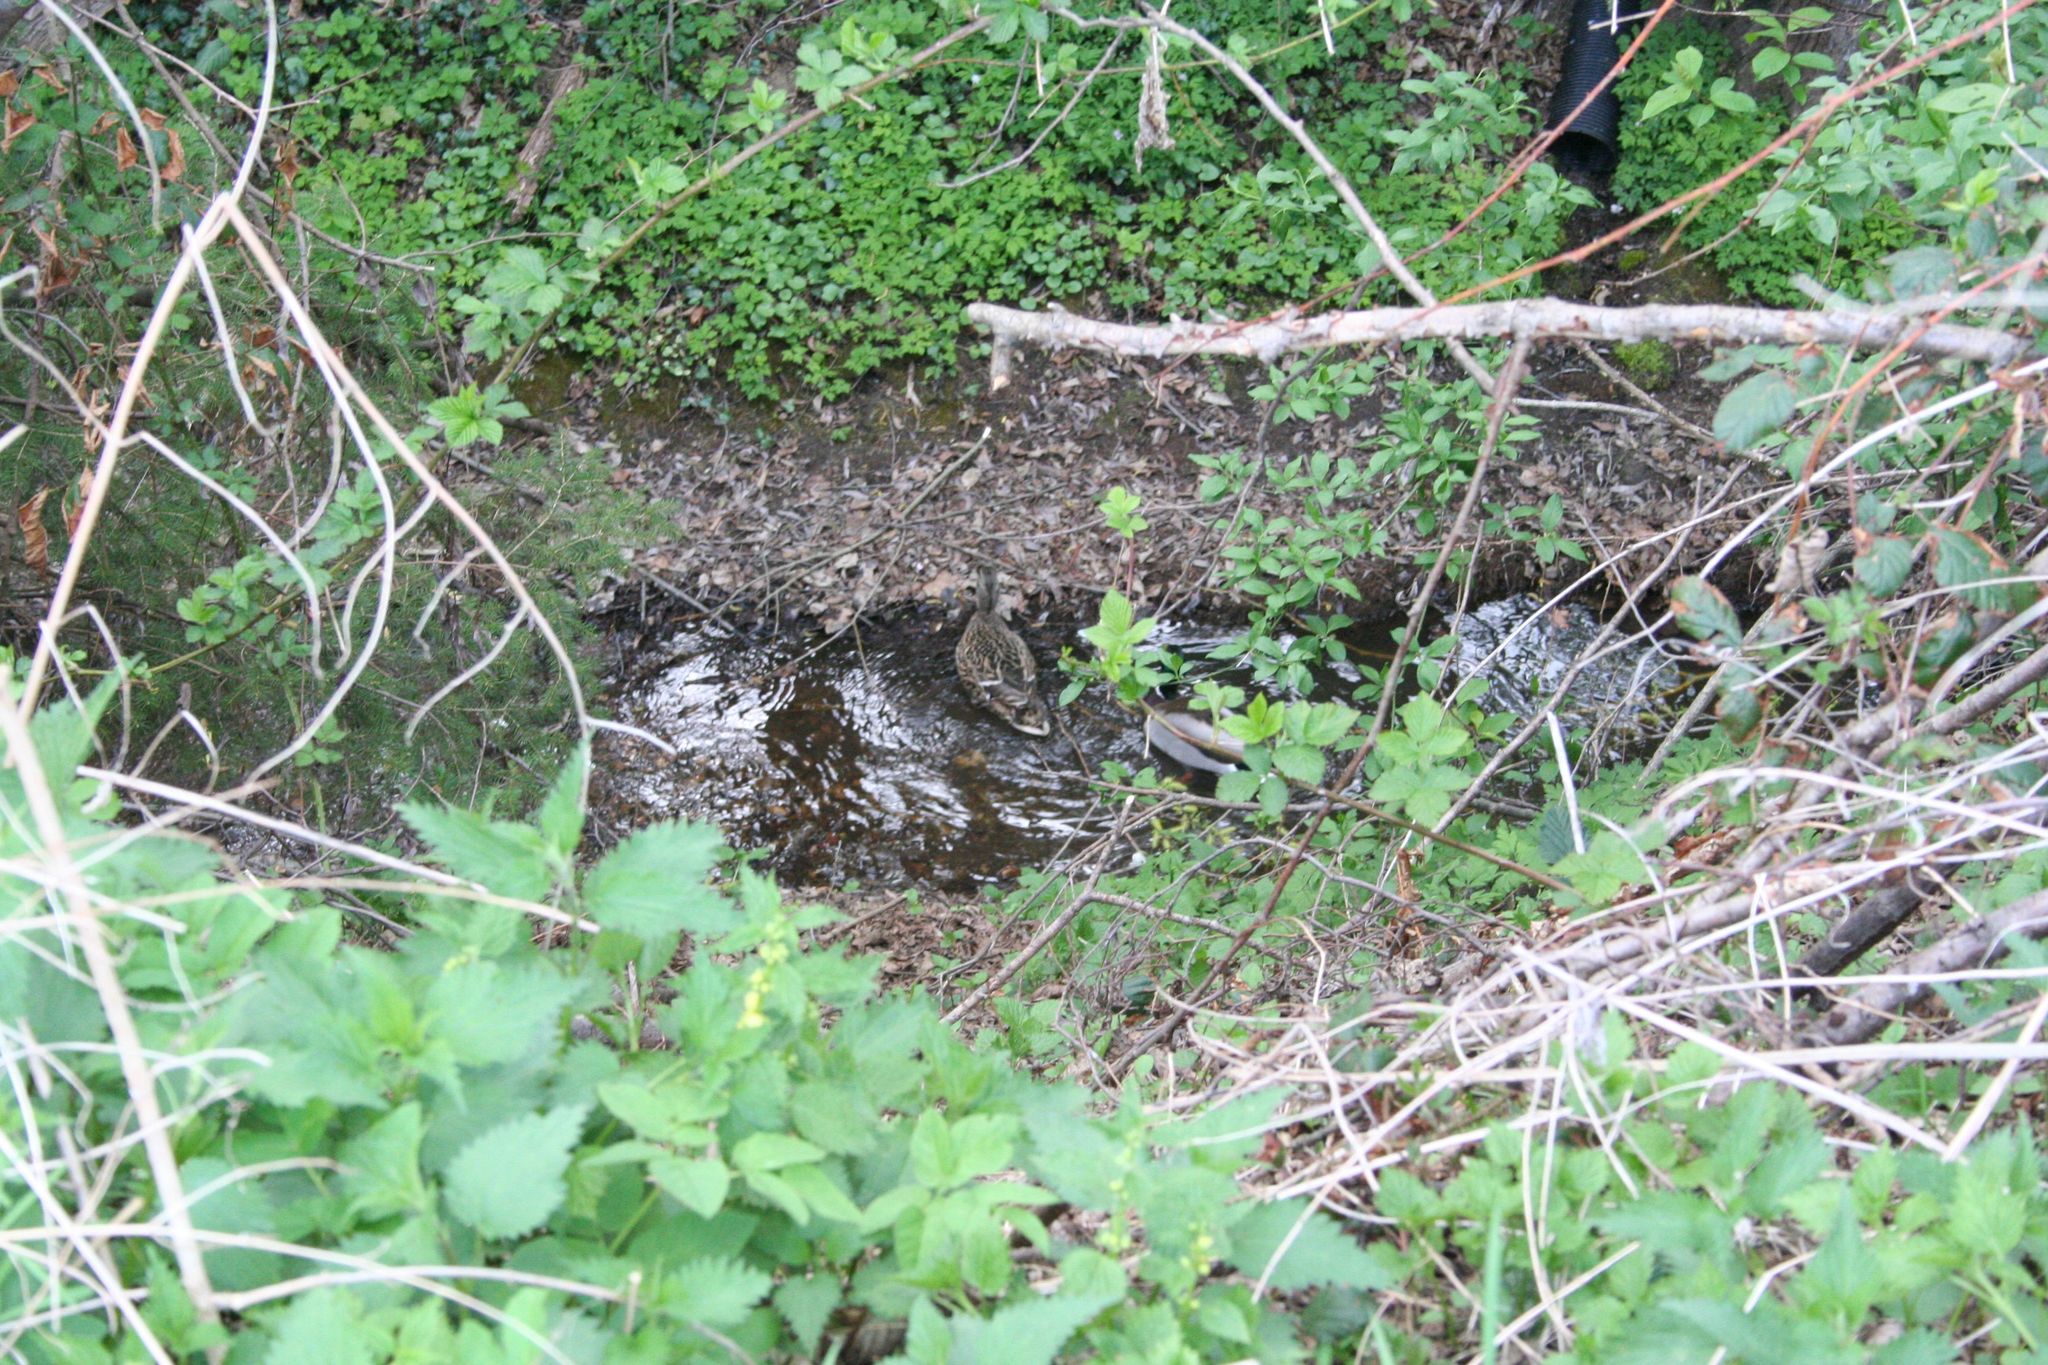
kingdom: Animalia
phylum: Chordata
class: Aves
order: Anseriformes
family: Anatidae
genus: Anas
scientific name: Anas platyrhynchos
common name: Mallard
